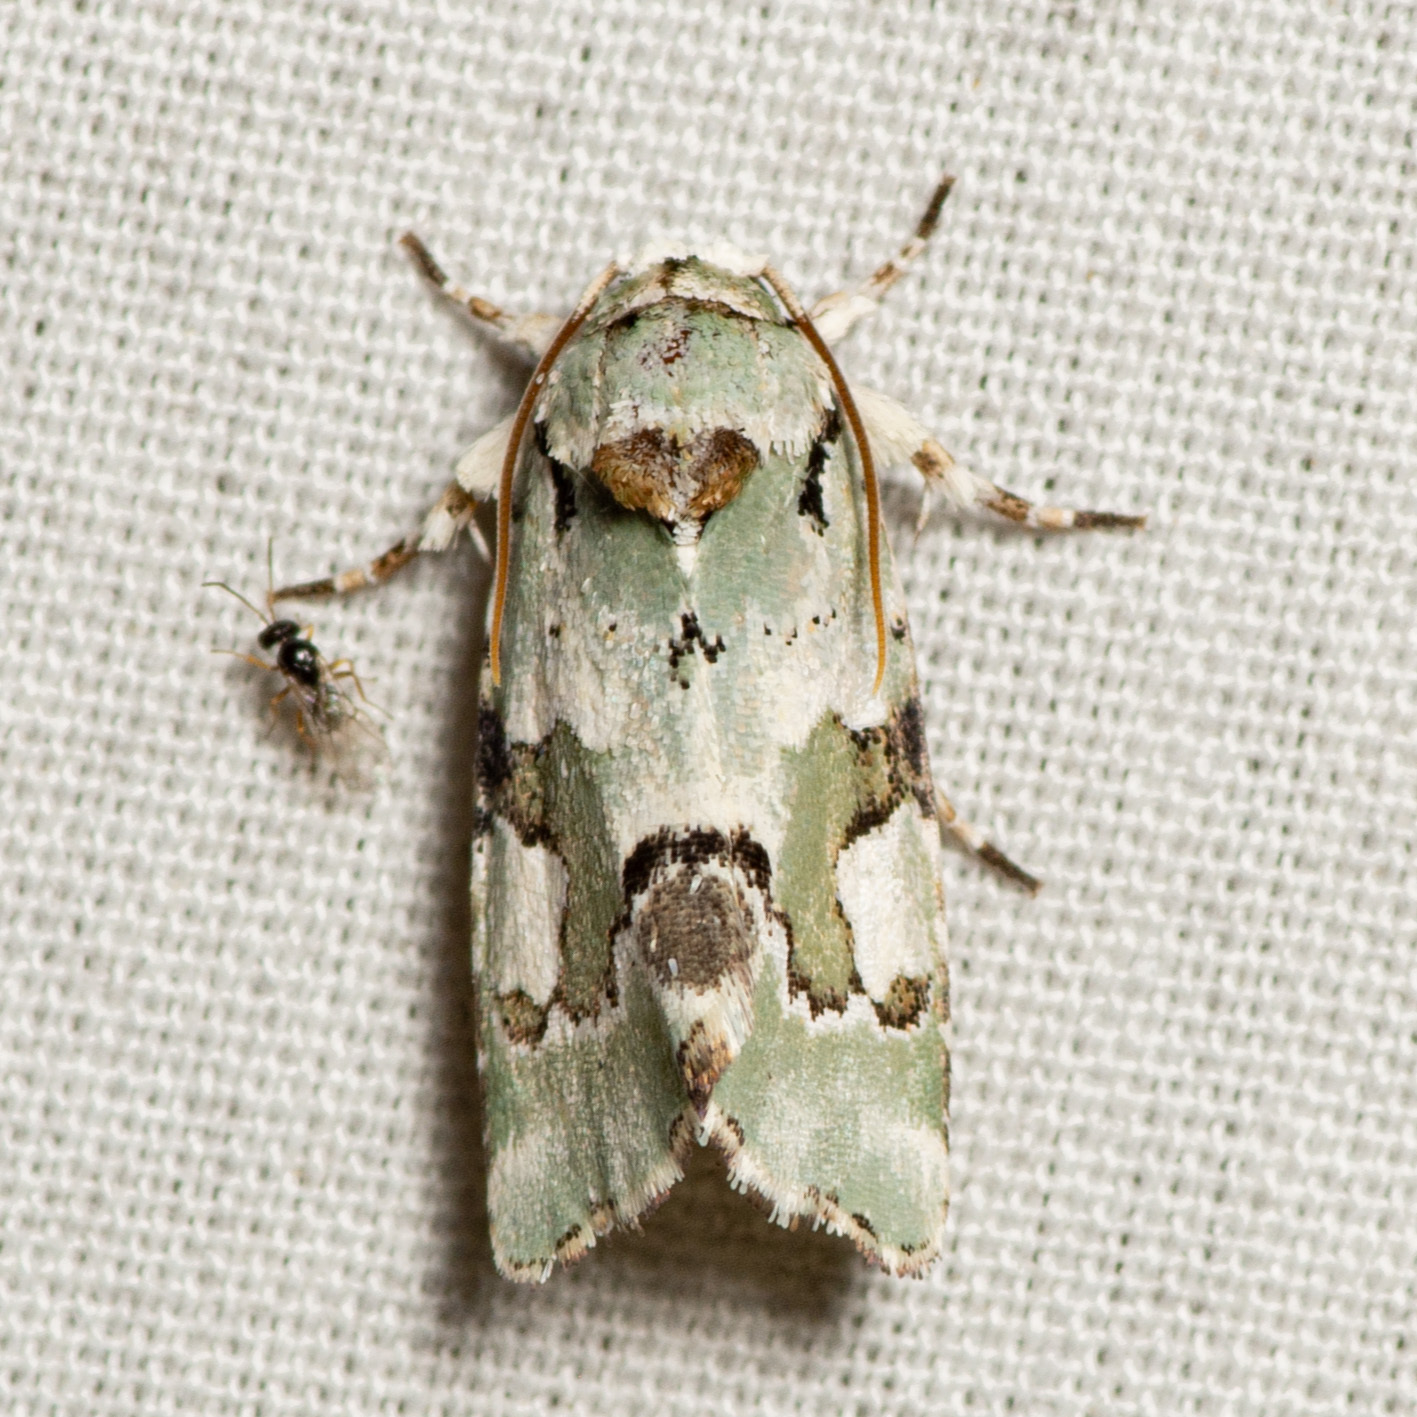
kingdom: Animalia
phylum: Arthropoda
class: Insecta
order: Lepidoptera
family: Noctuidae
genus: Emarginea
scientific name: Emarginea percara
